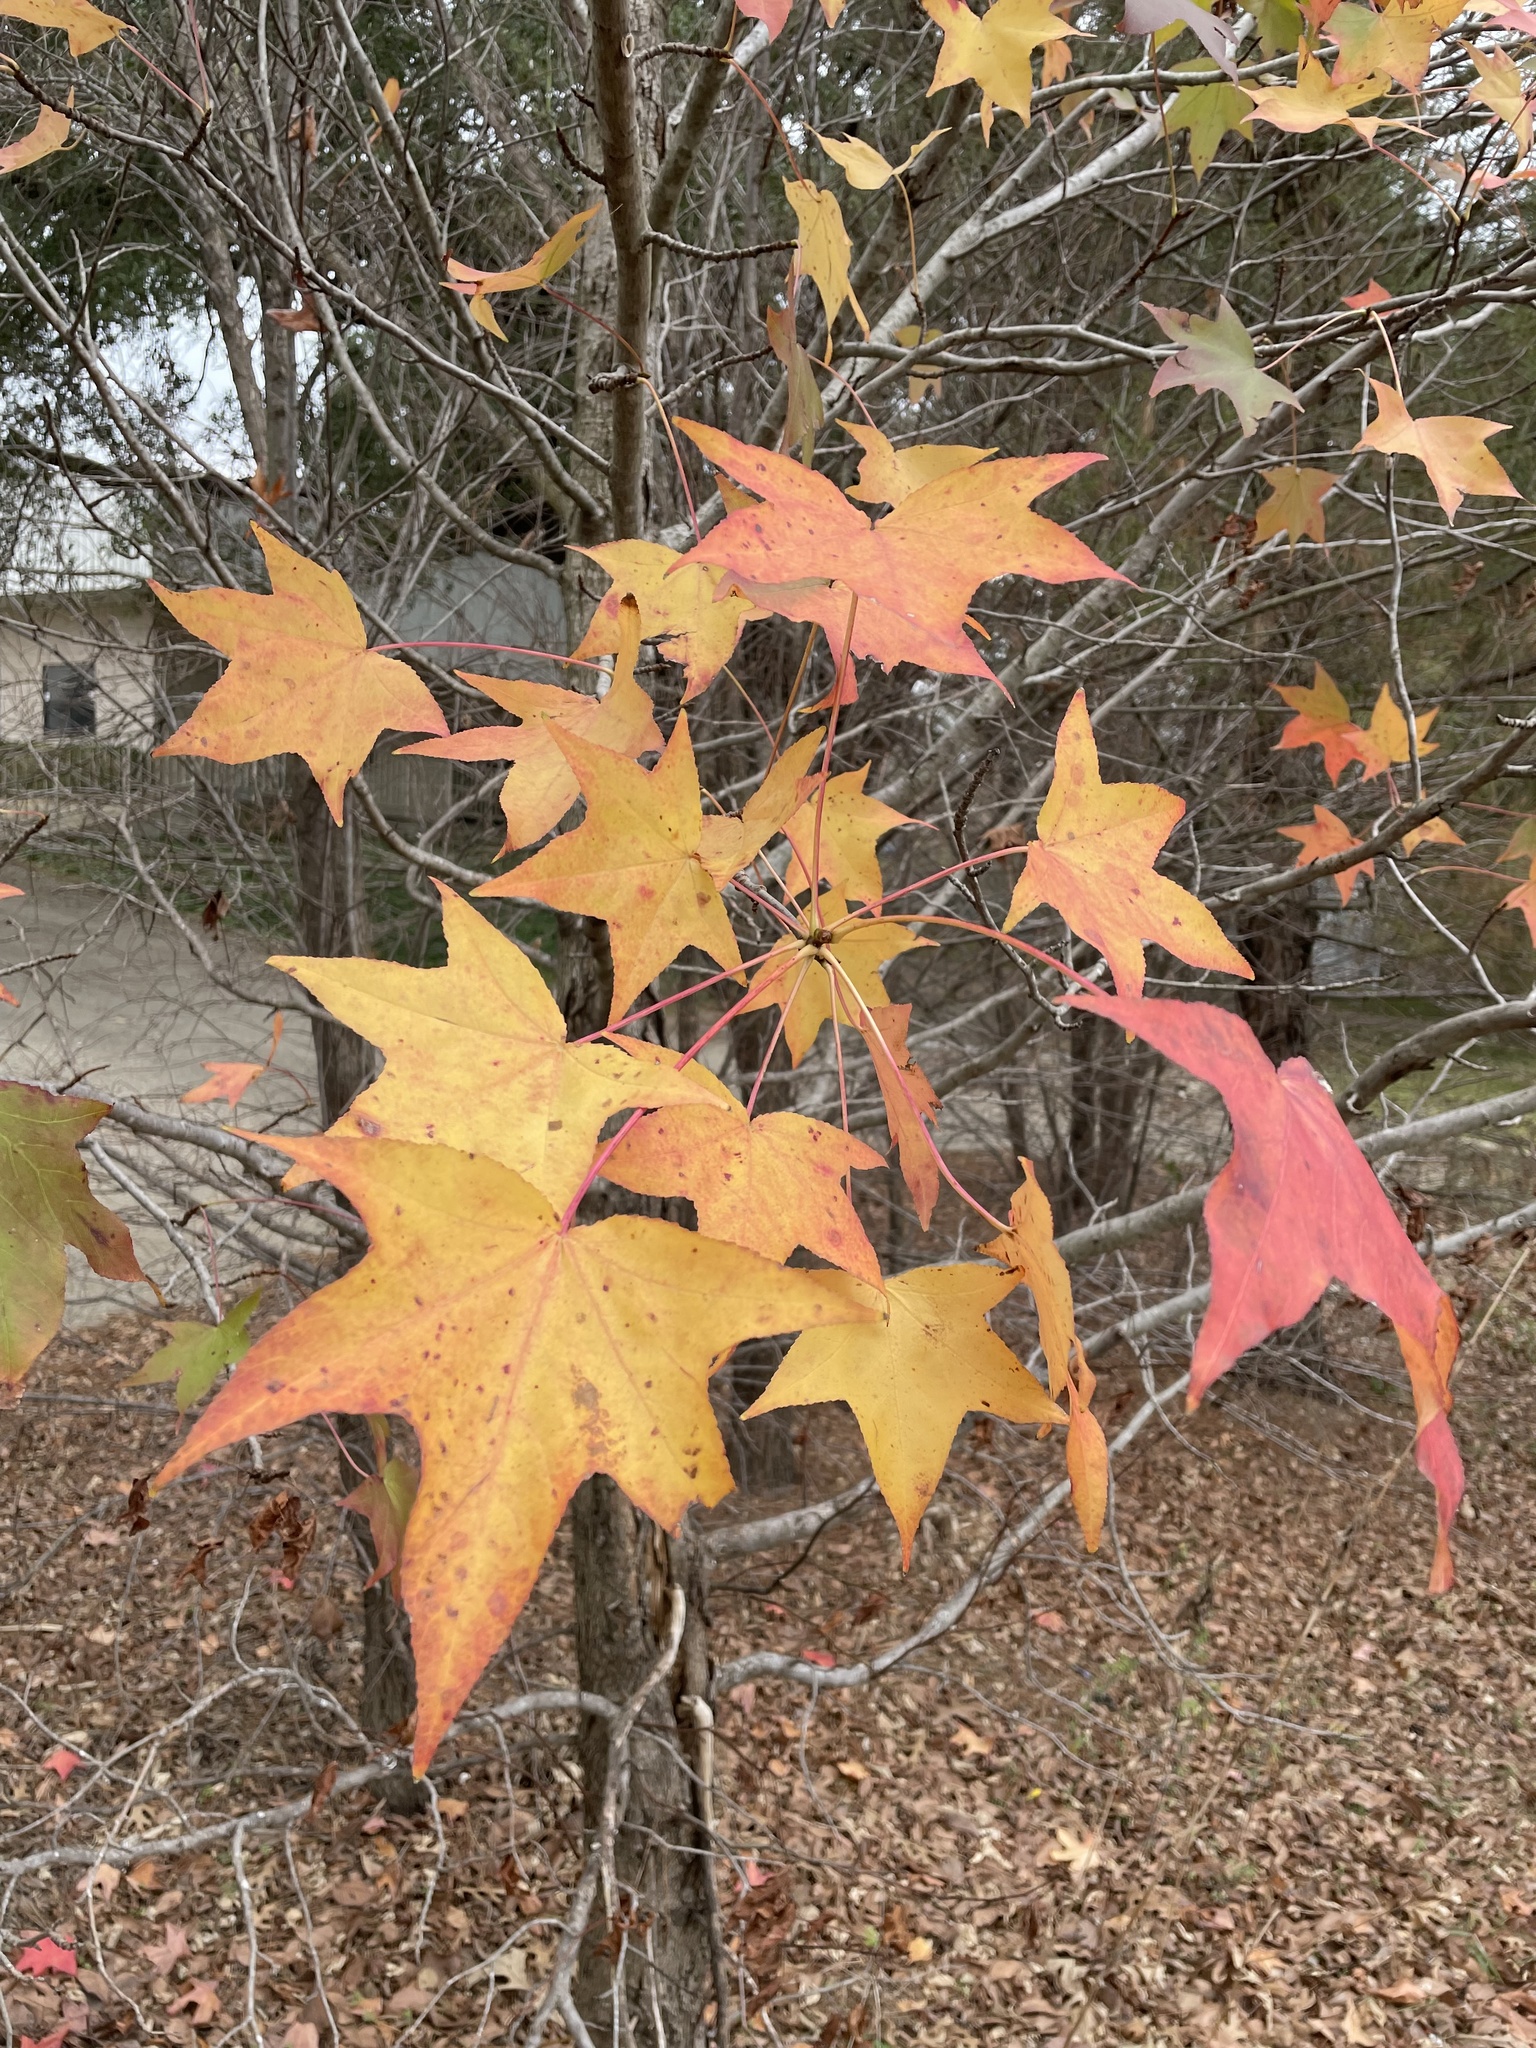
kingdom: Plantae
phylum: Tracheophyta
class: Magnoliopsida
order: Saxifragales
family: Altingiaceae
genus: Liquidambar
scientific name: Liquidambar styraciflua
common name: Sweet gum
